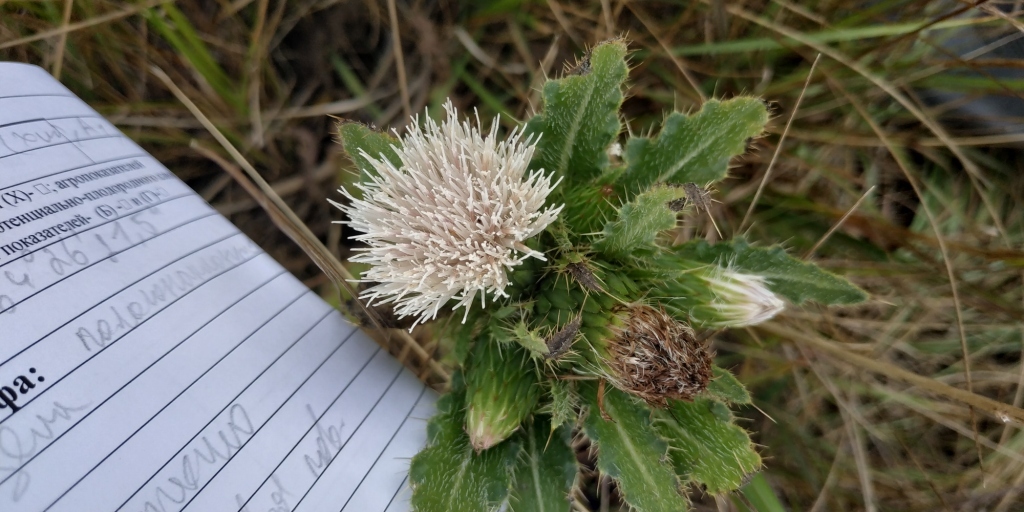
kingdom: Plantae
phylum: Tracheophyta
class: Magnoliopsida
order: Asterales
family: Asteraceae
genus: Cirsium
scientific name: Cirsium esculentum
